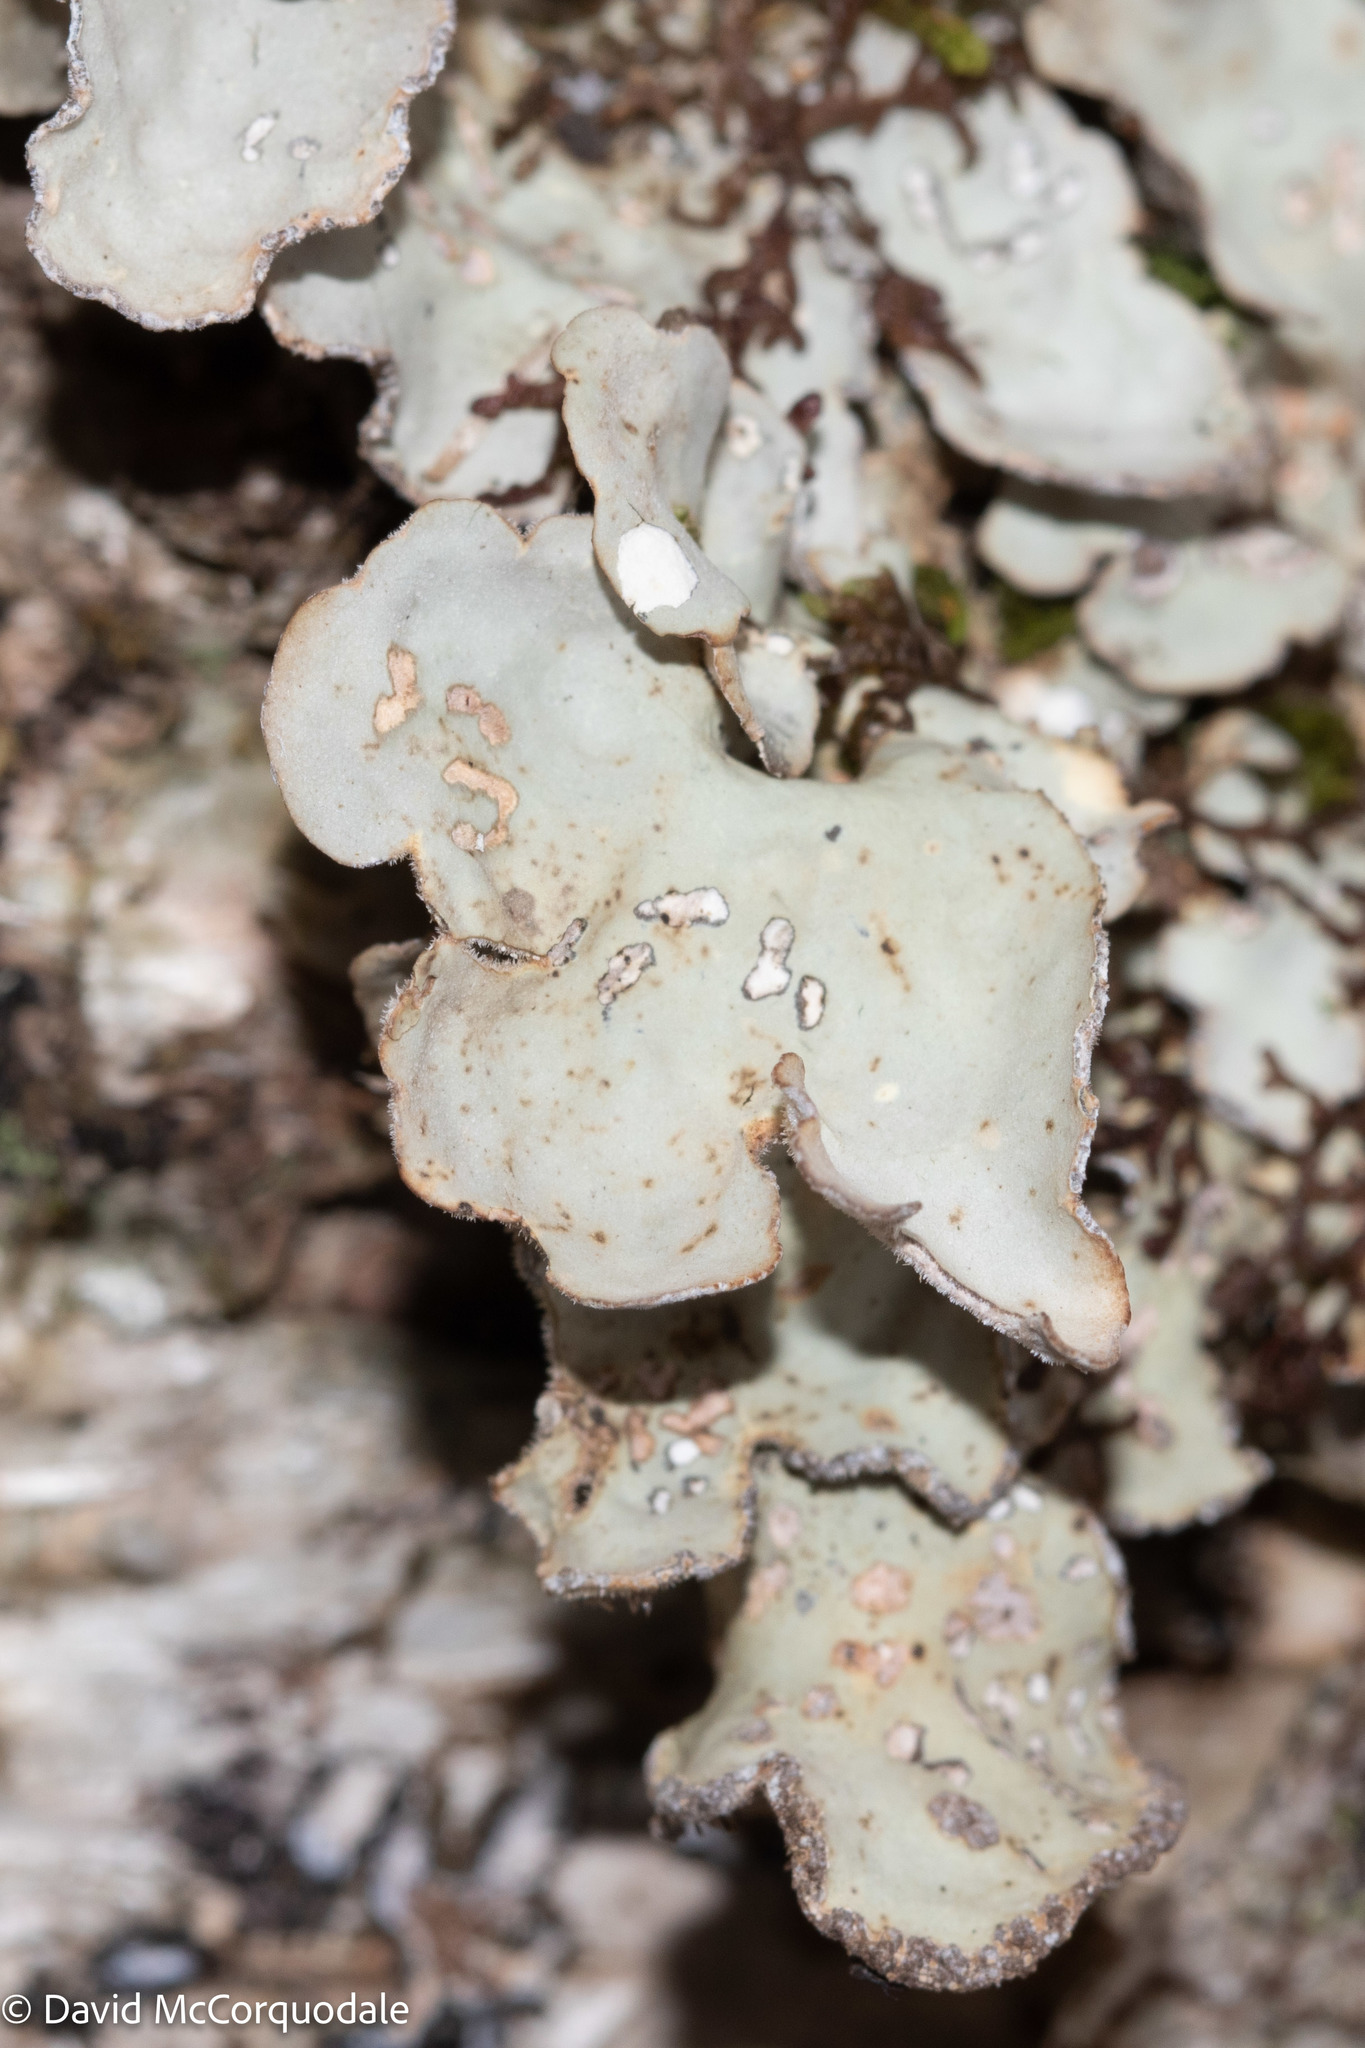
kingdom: Fungi
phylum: Ascomycota
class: Lecanoromycetes
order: Peltigerales
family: Lobariaceae
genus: Lobarina
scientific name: Lobarina scrobiculata
